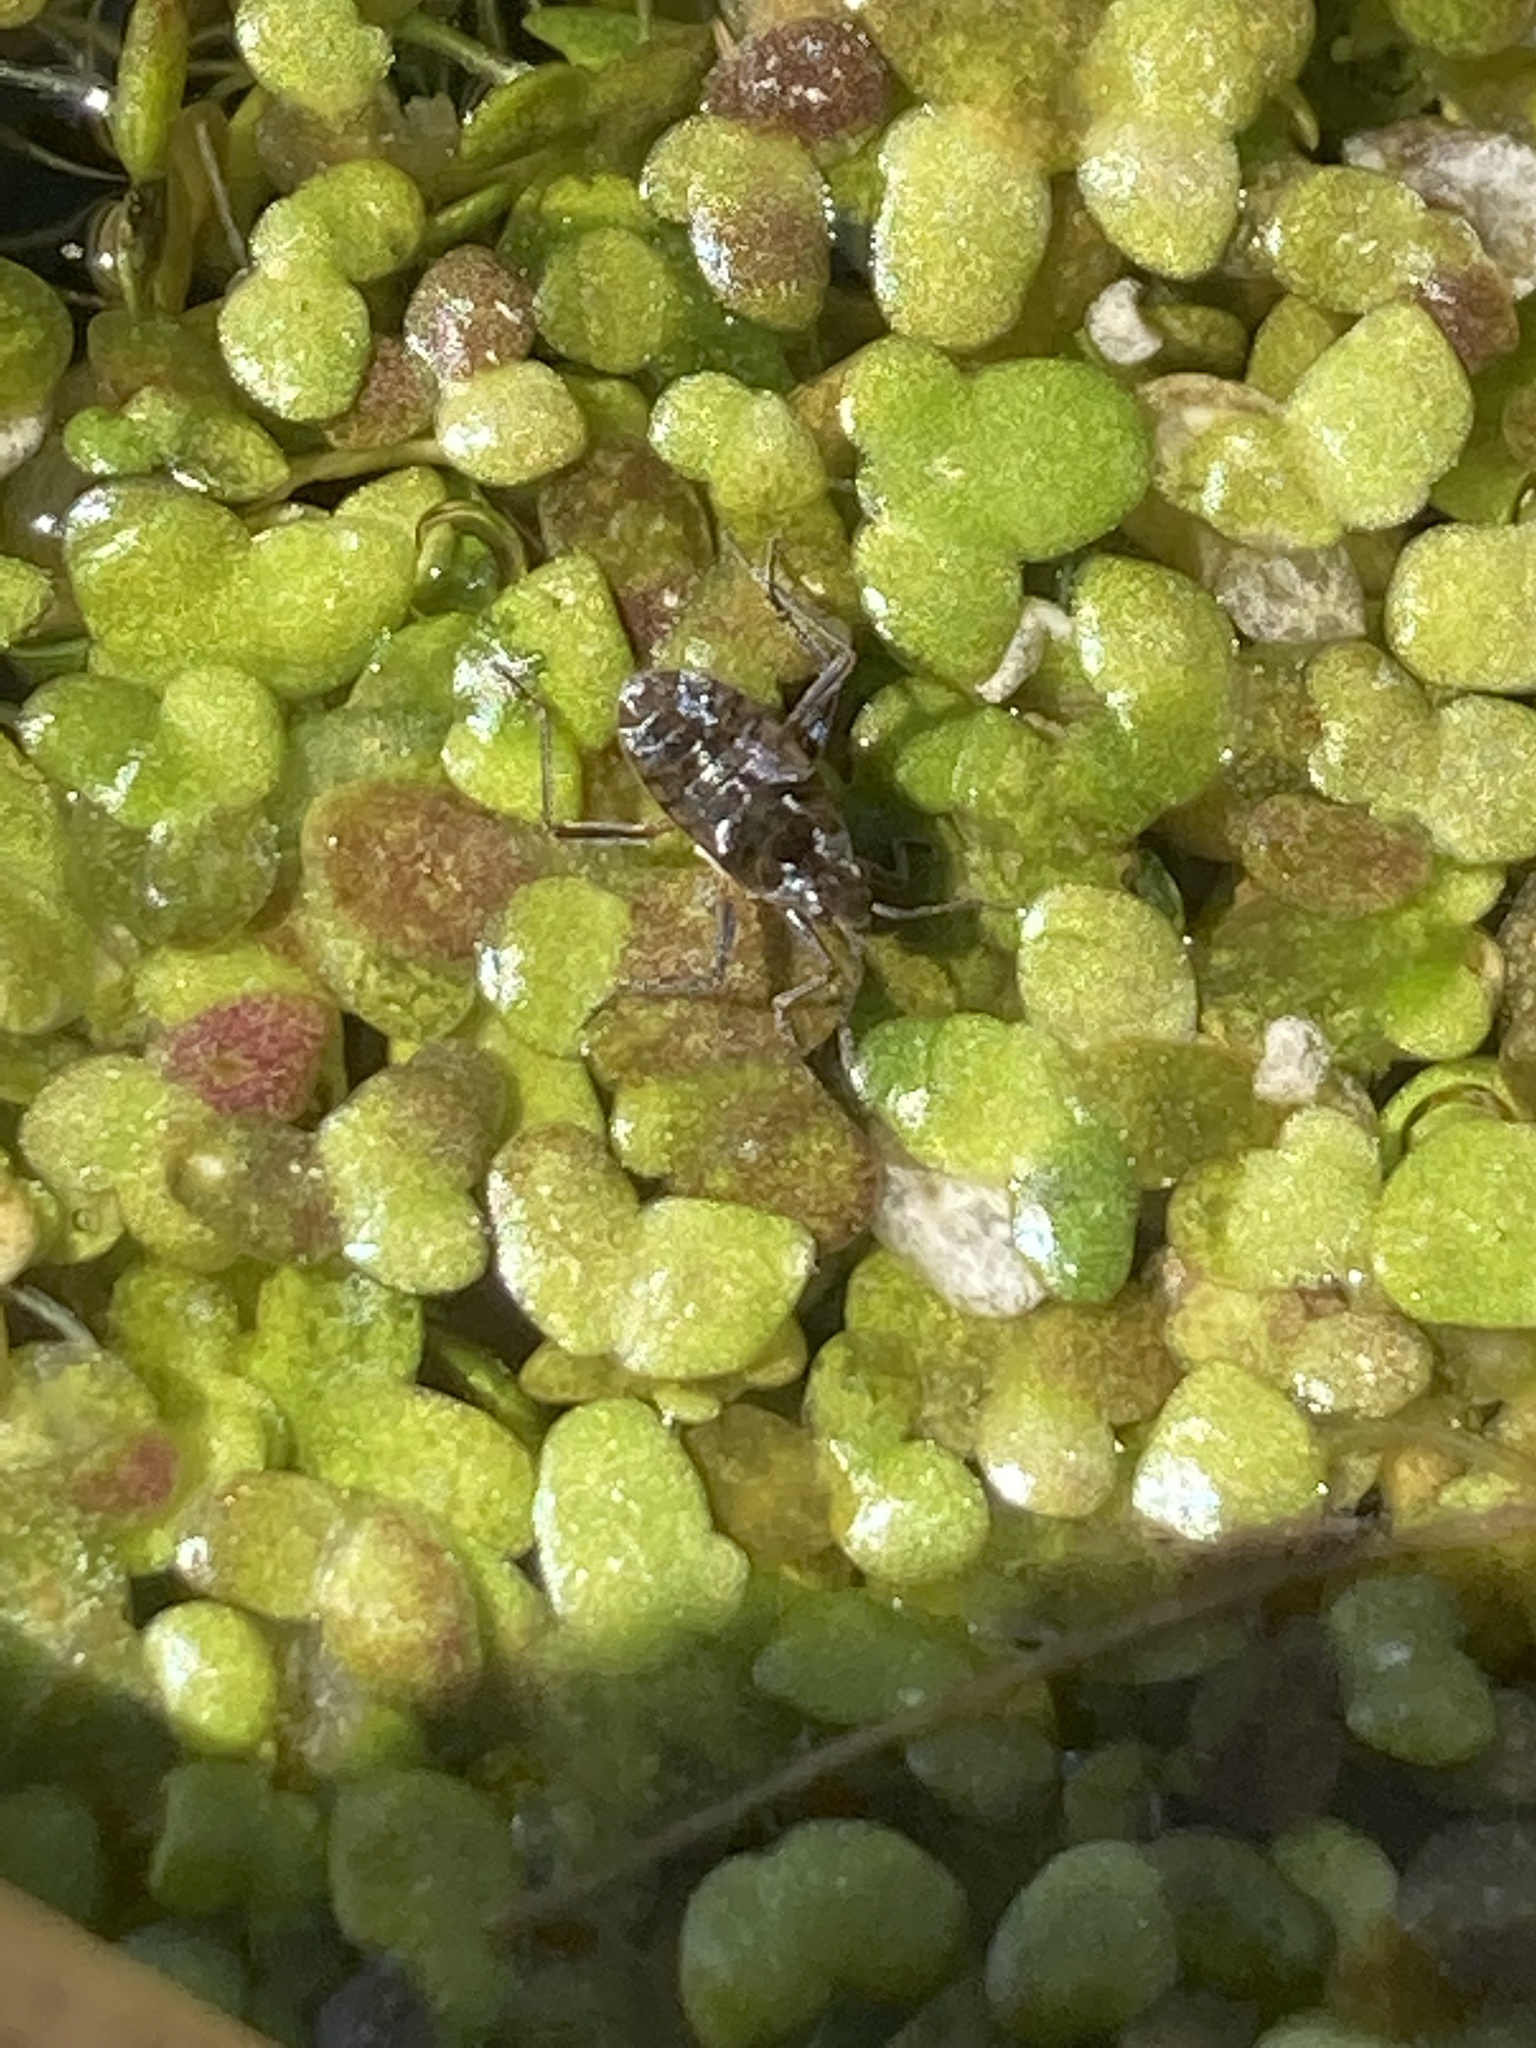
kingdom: Animalia
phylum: Arthropoda
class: Insecta
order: Hemiptera
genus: Kirkaldya
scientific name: Kirkaldya
